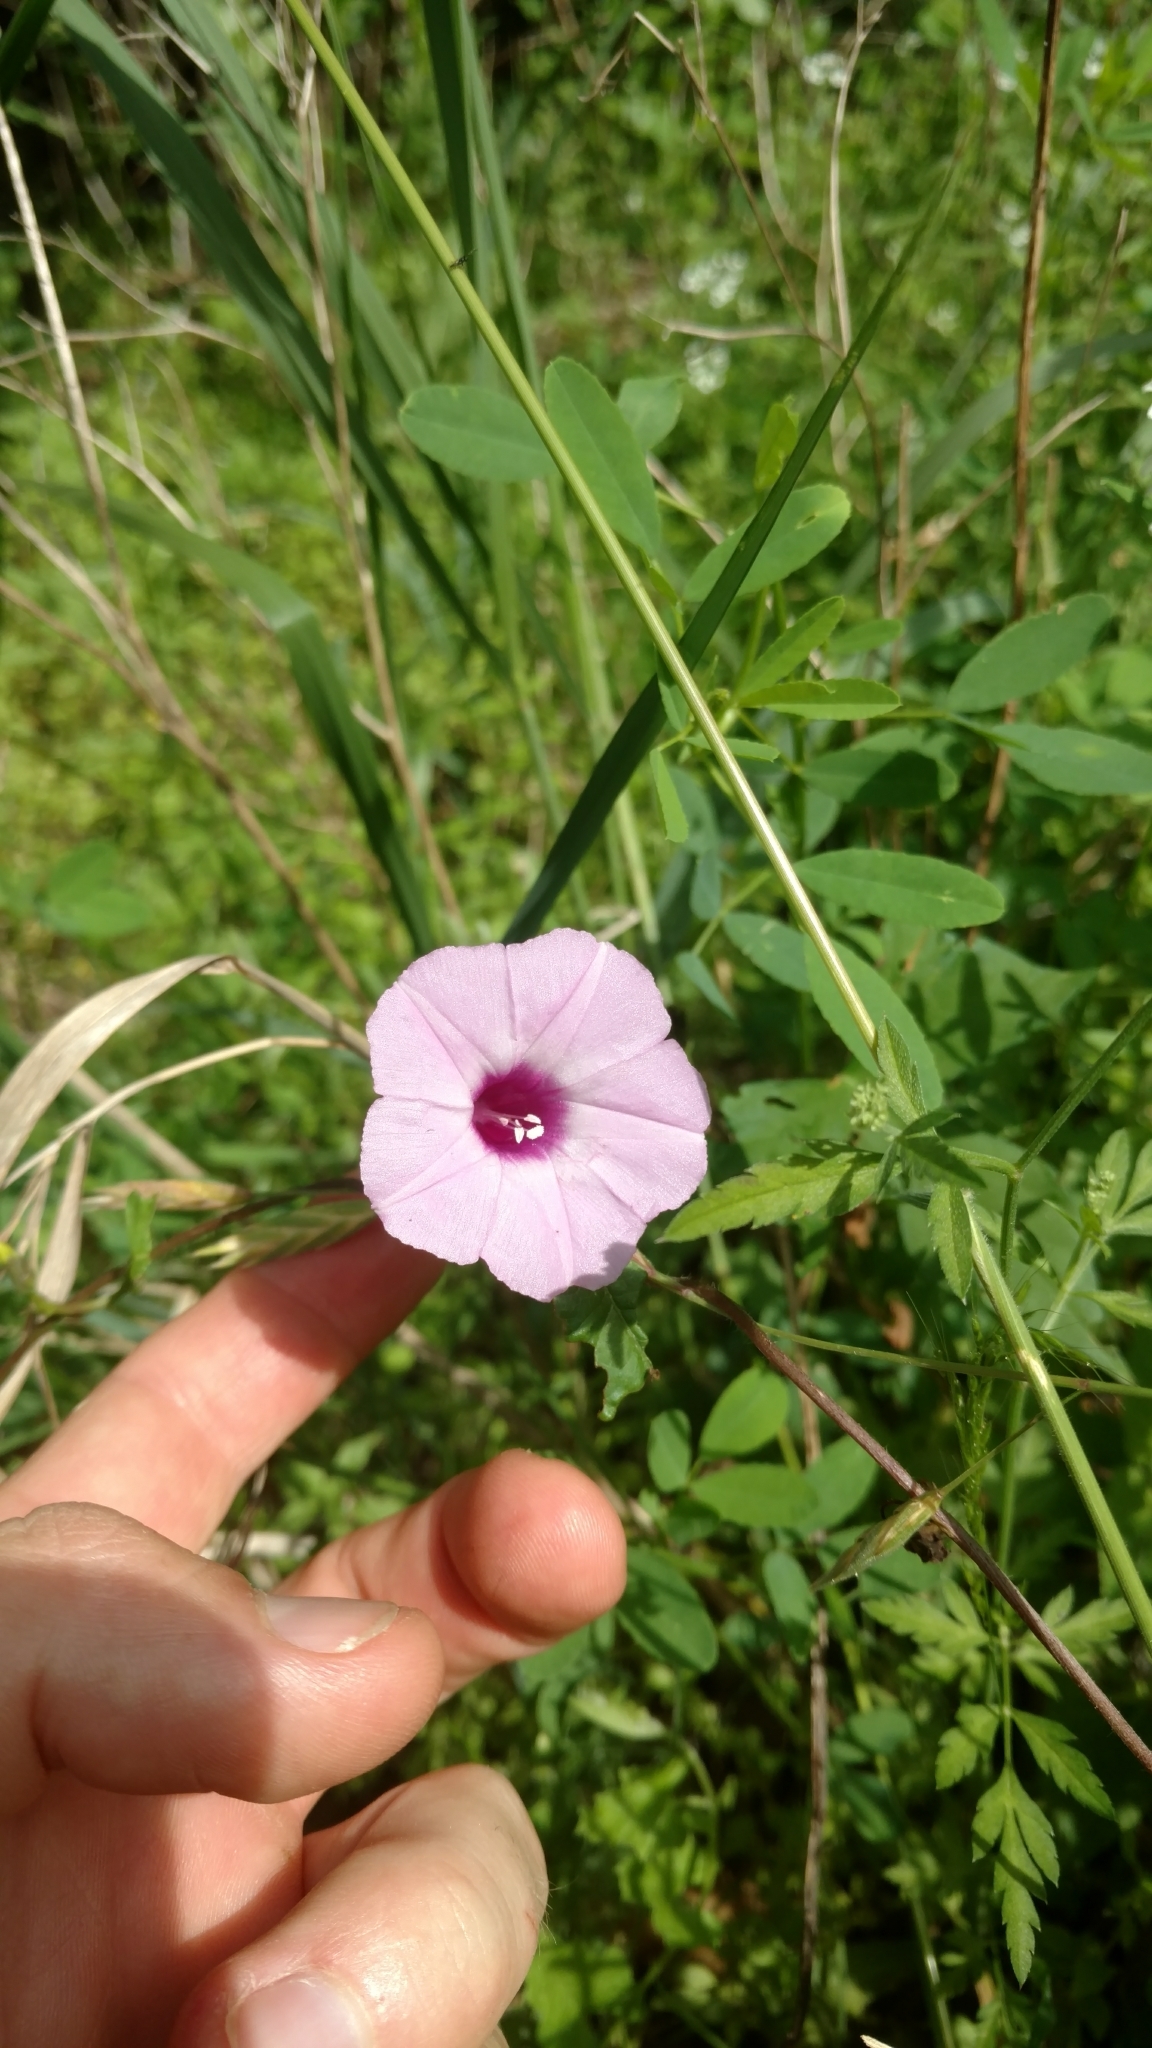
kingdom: Plantae
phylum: Tracheophyta
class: Magnoliopsida
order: Solanales
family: Convolvulaceae
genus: Ipomoea
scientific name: Ipomoea cordatotriloba
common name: Cotton morning glory
